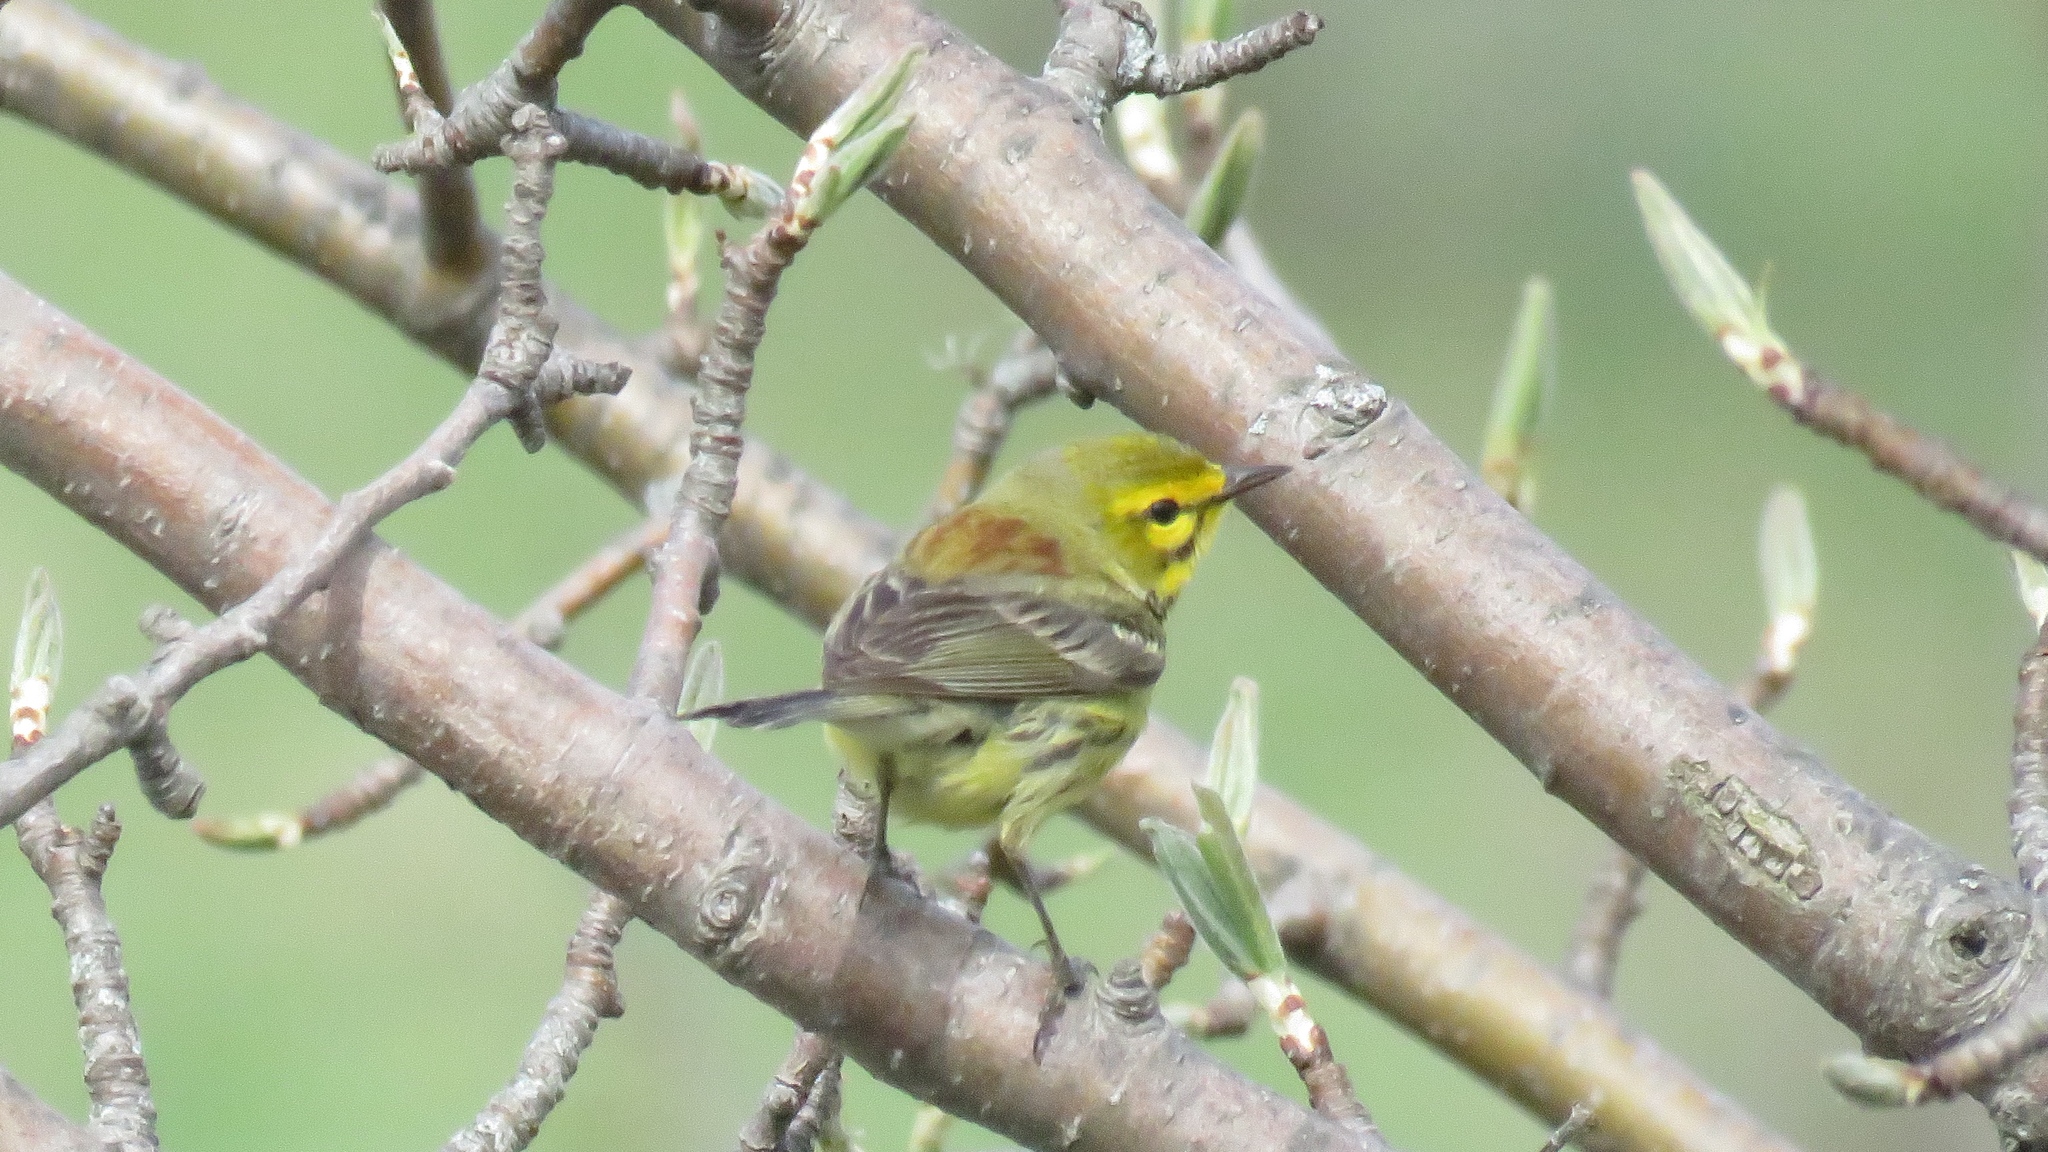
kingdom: Animalia
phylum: Chordata
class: Aves
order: Passeriformes
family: Parulidae
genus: Setophaga
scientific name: Setophaga discolor
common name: Prairie warbler
